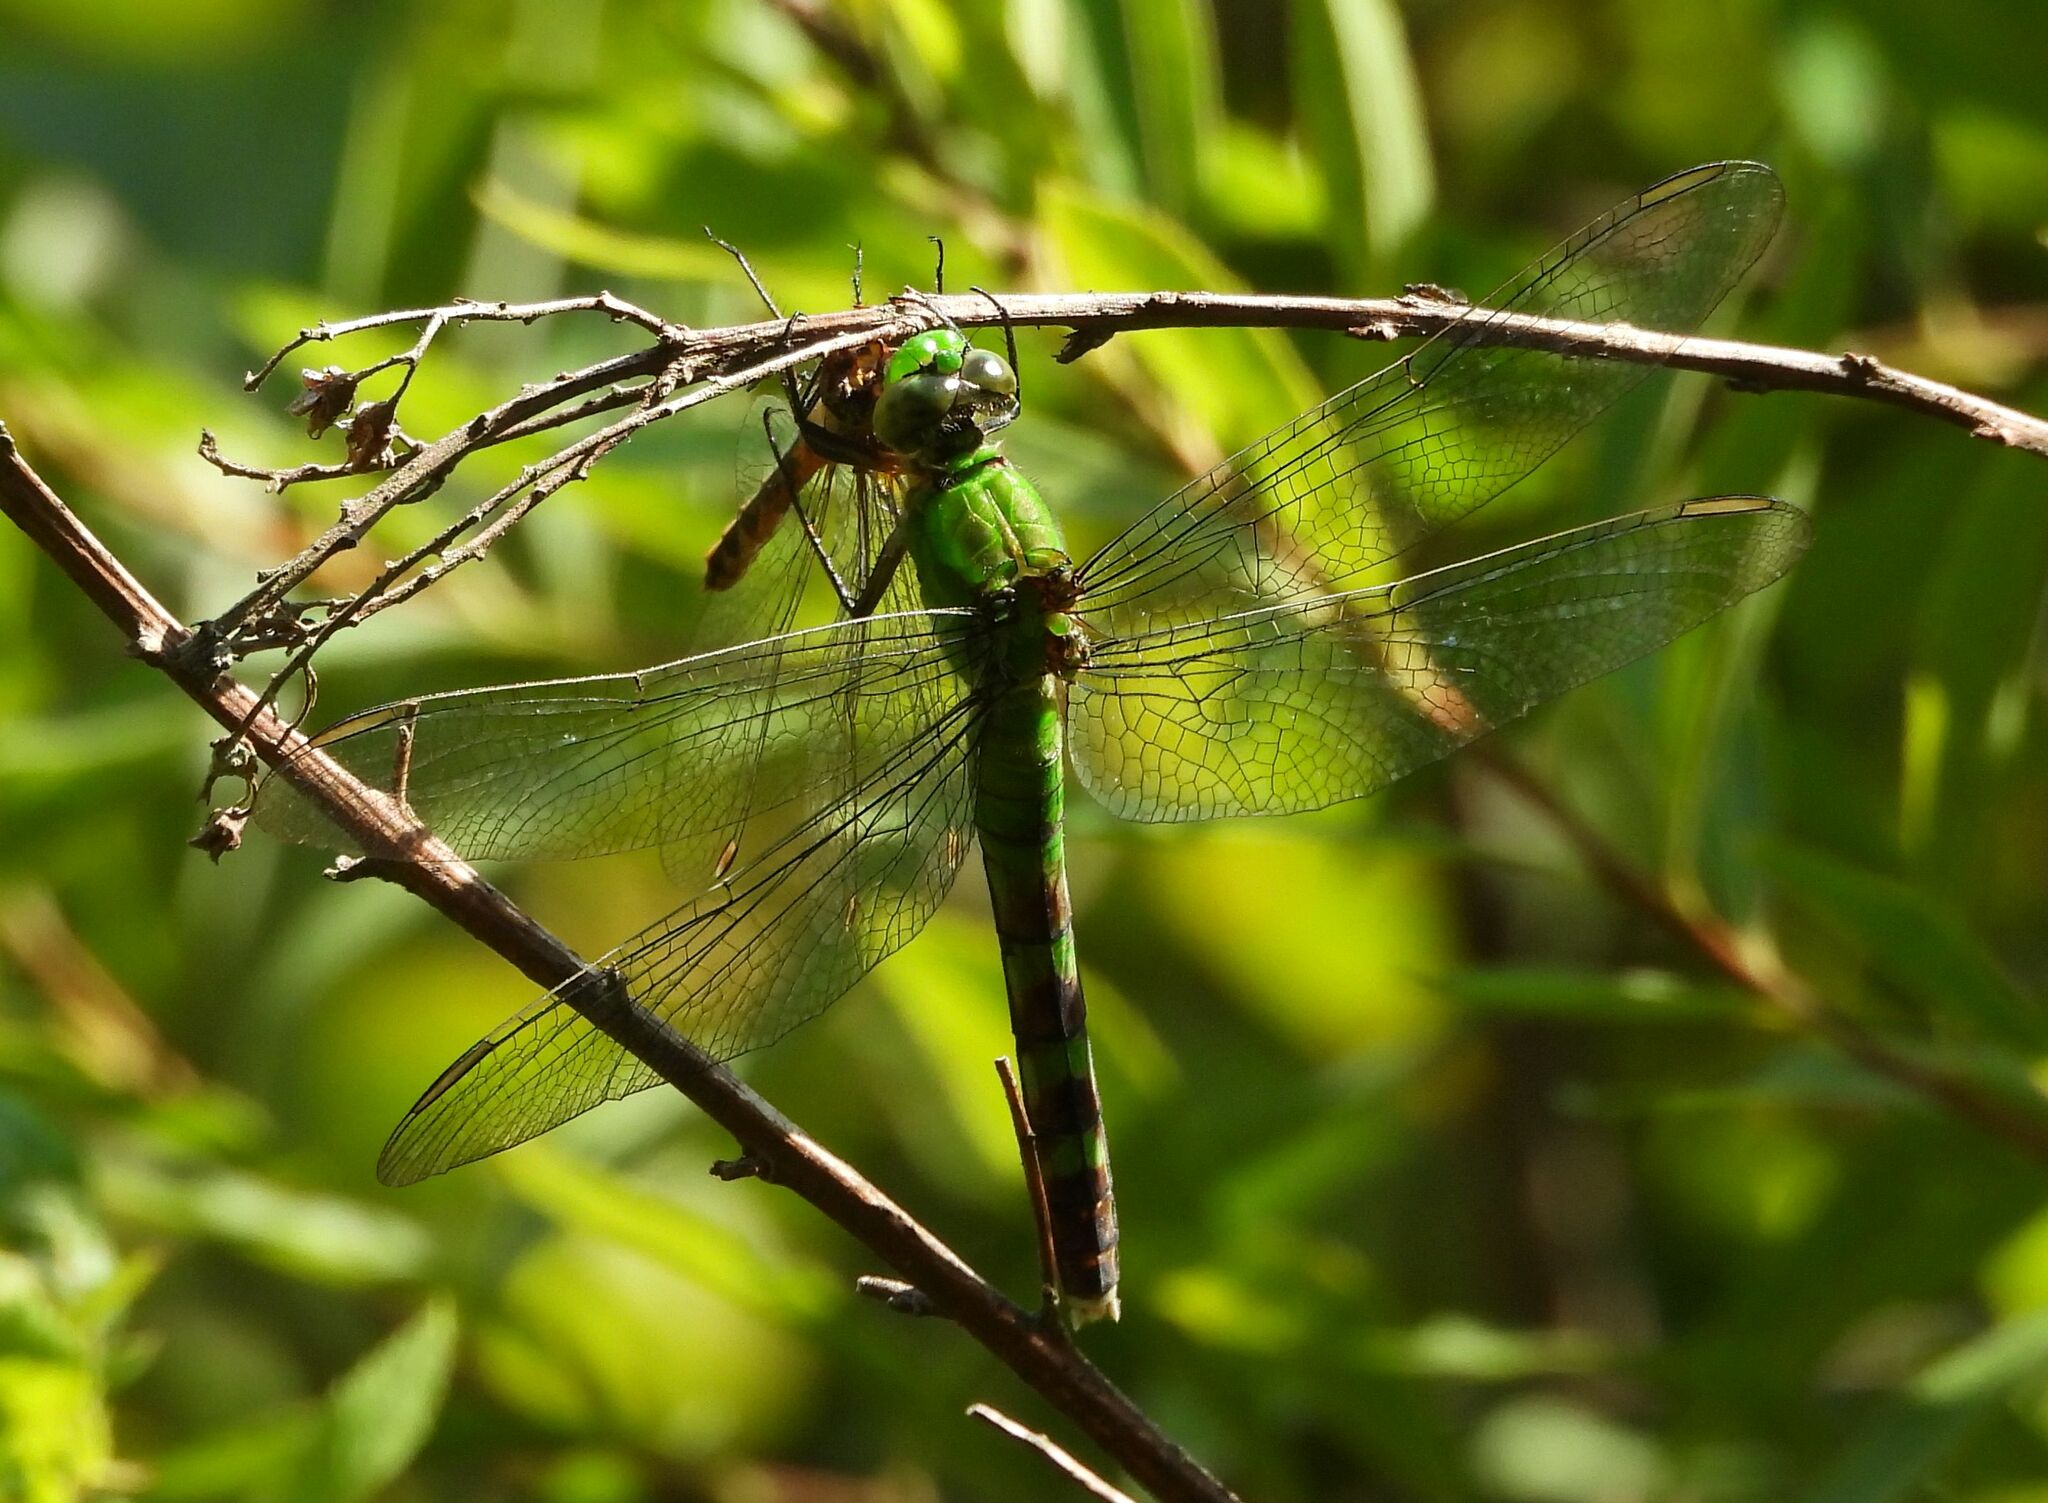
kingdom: Animalia
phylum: Arthropoda
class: Insecta
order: Odonata
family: Libellulidae
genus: Erythemis
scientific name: Erythemis simplicicollis
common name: Eastern pondhawk
